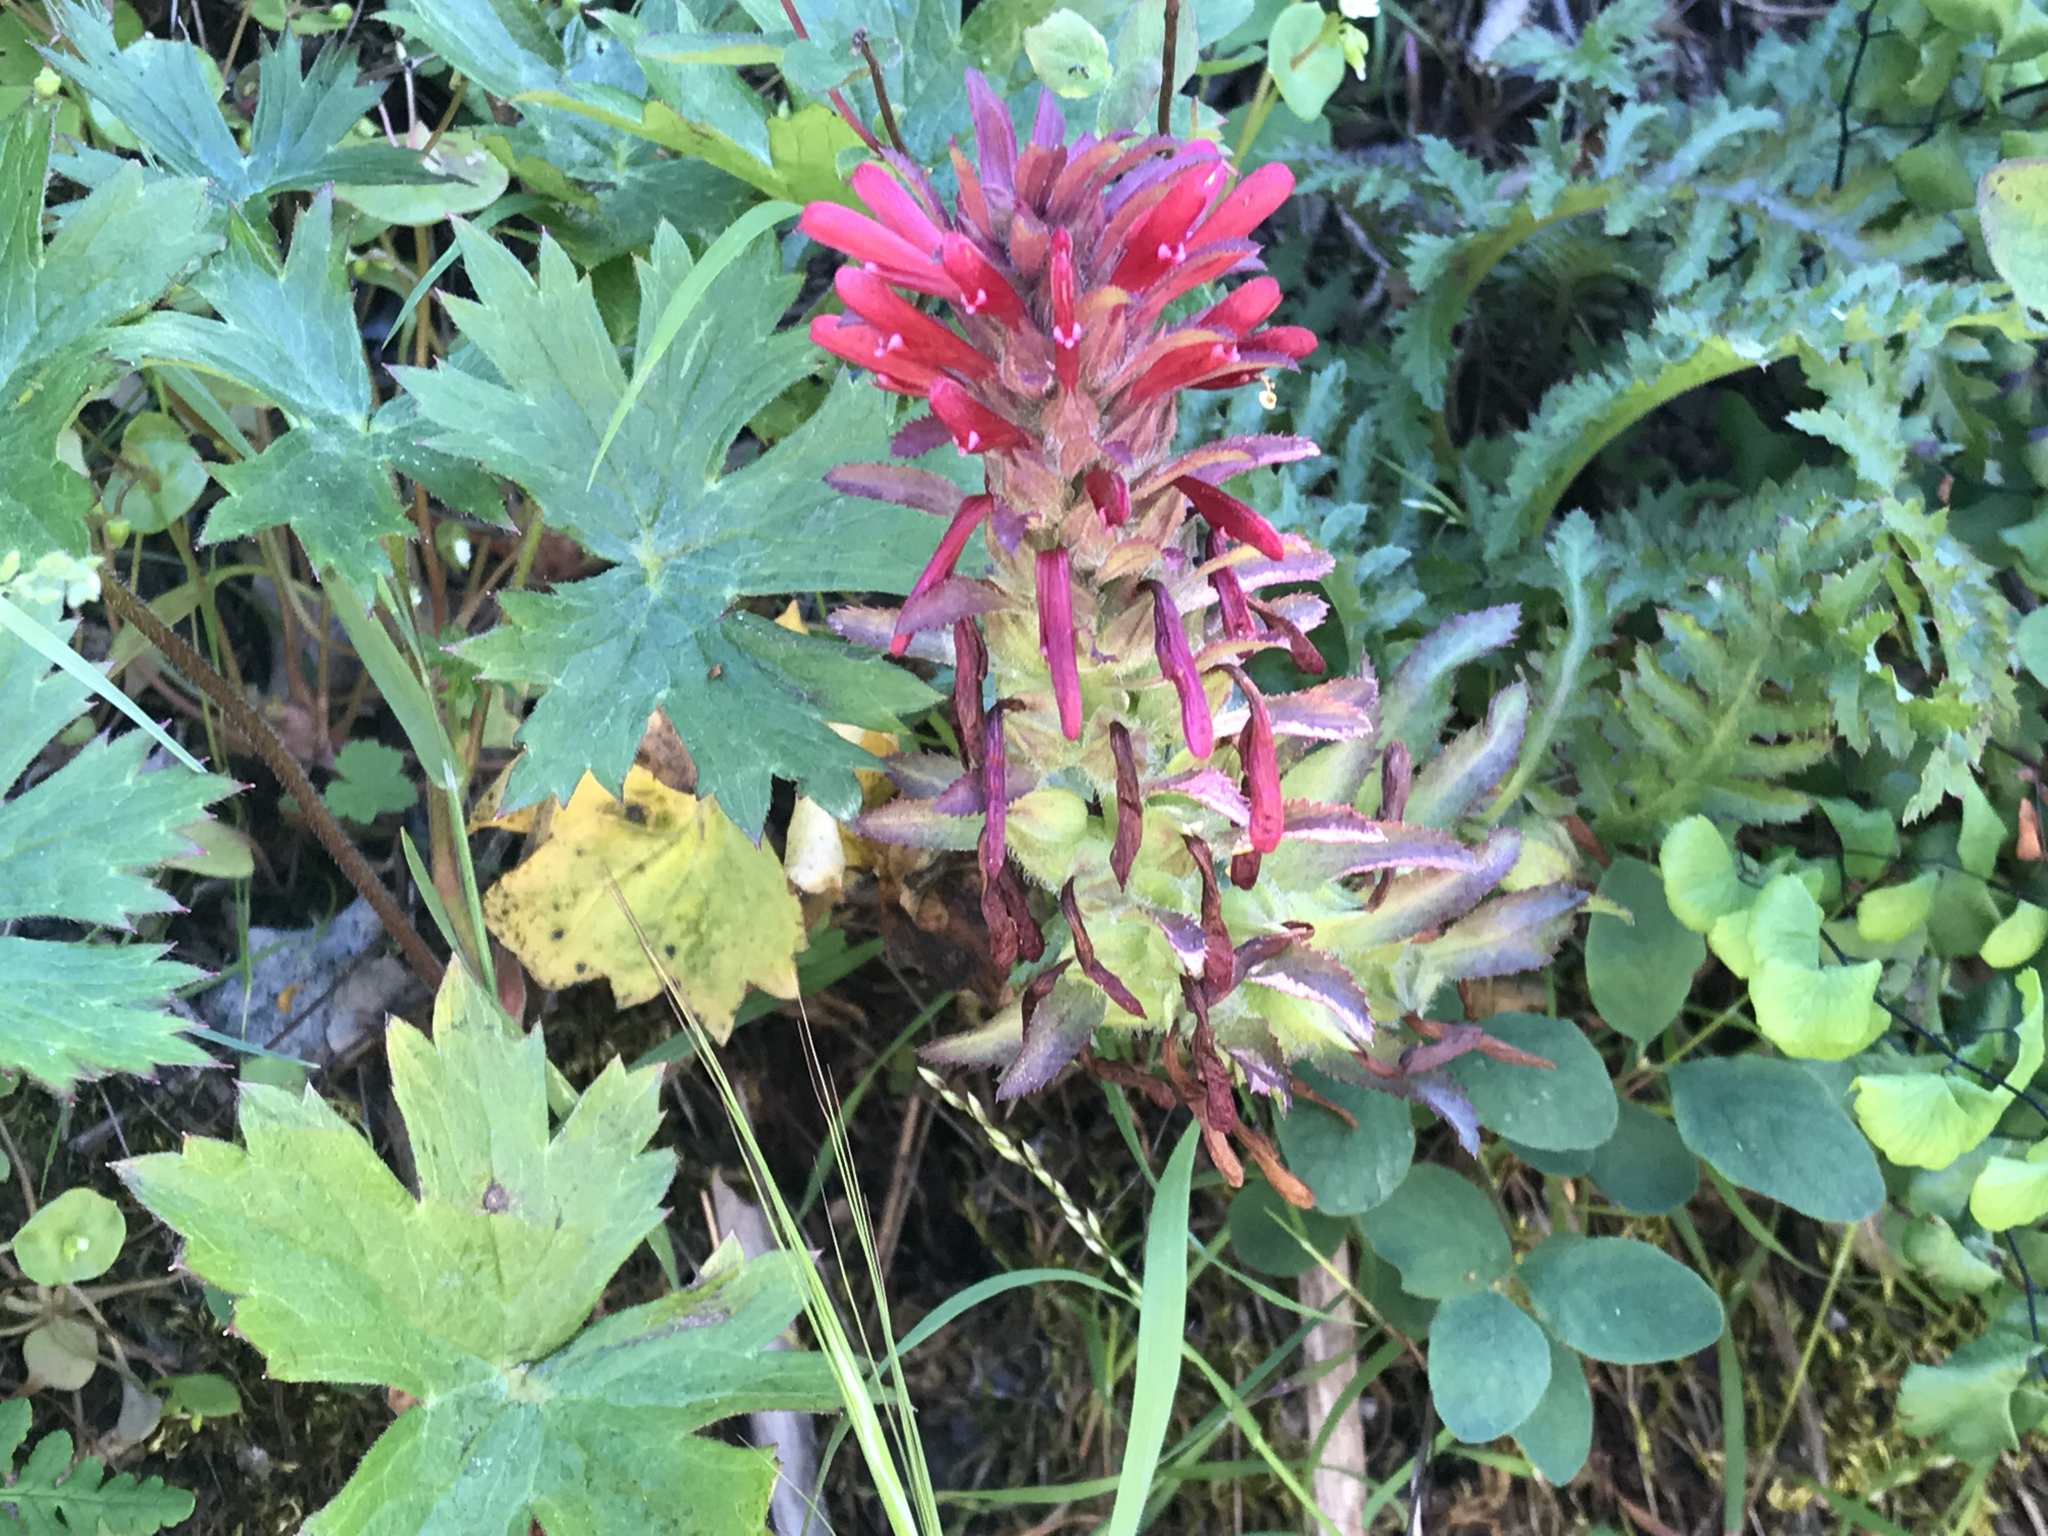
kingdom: Plantae
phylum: Tracheophyta
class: Magnoliopsida
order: Lamiales
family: Orobanchaceae
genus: Pedicularis
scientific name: Pedicularis densiflora
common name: Indian warrior
